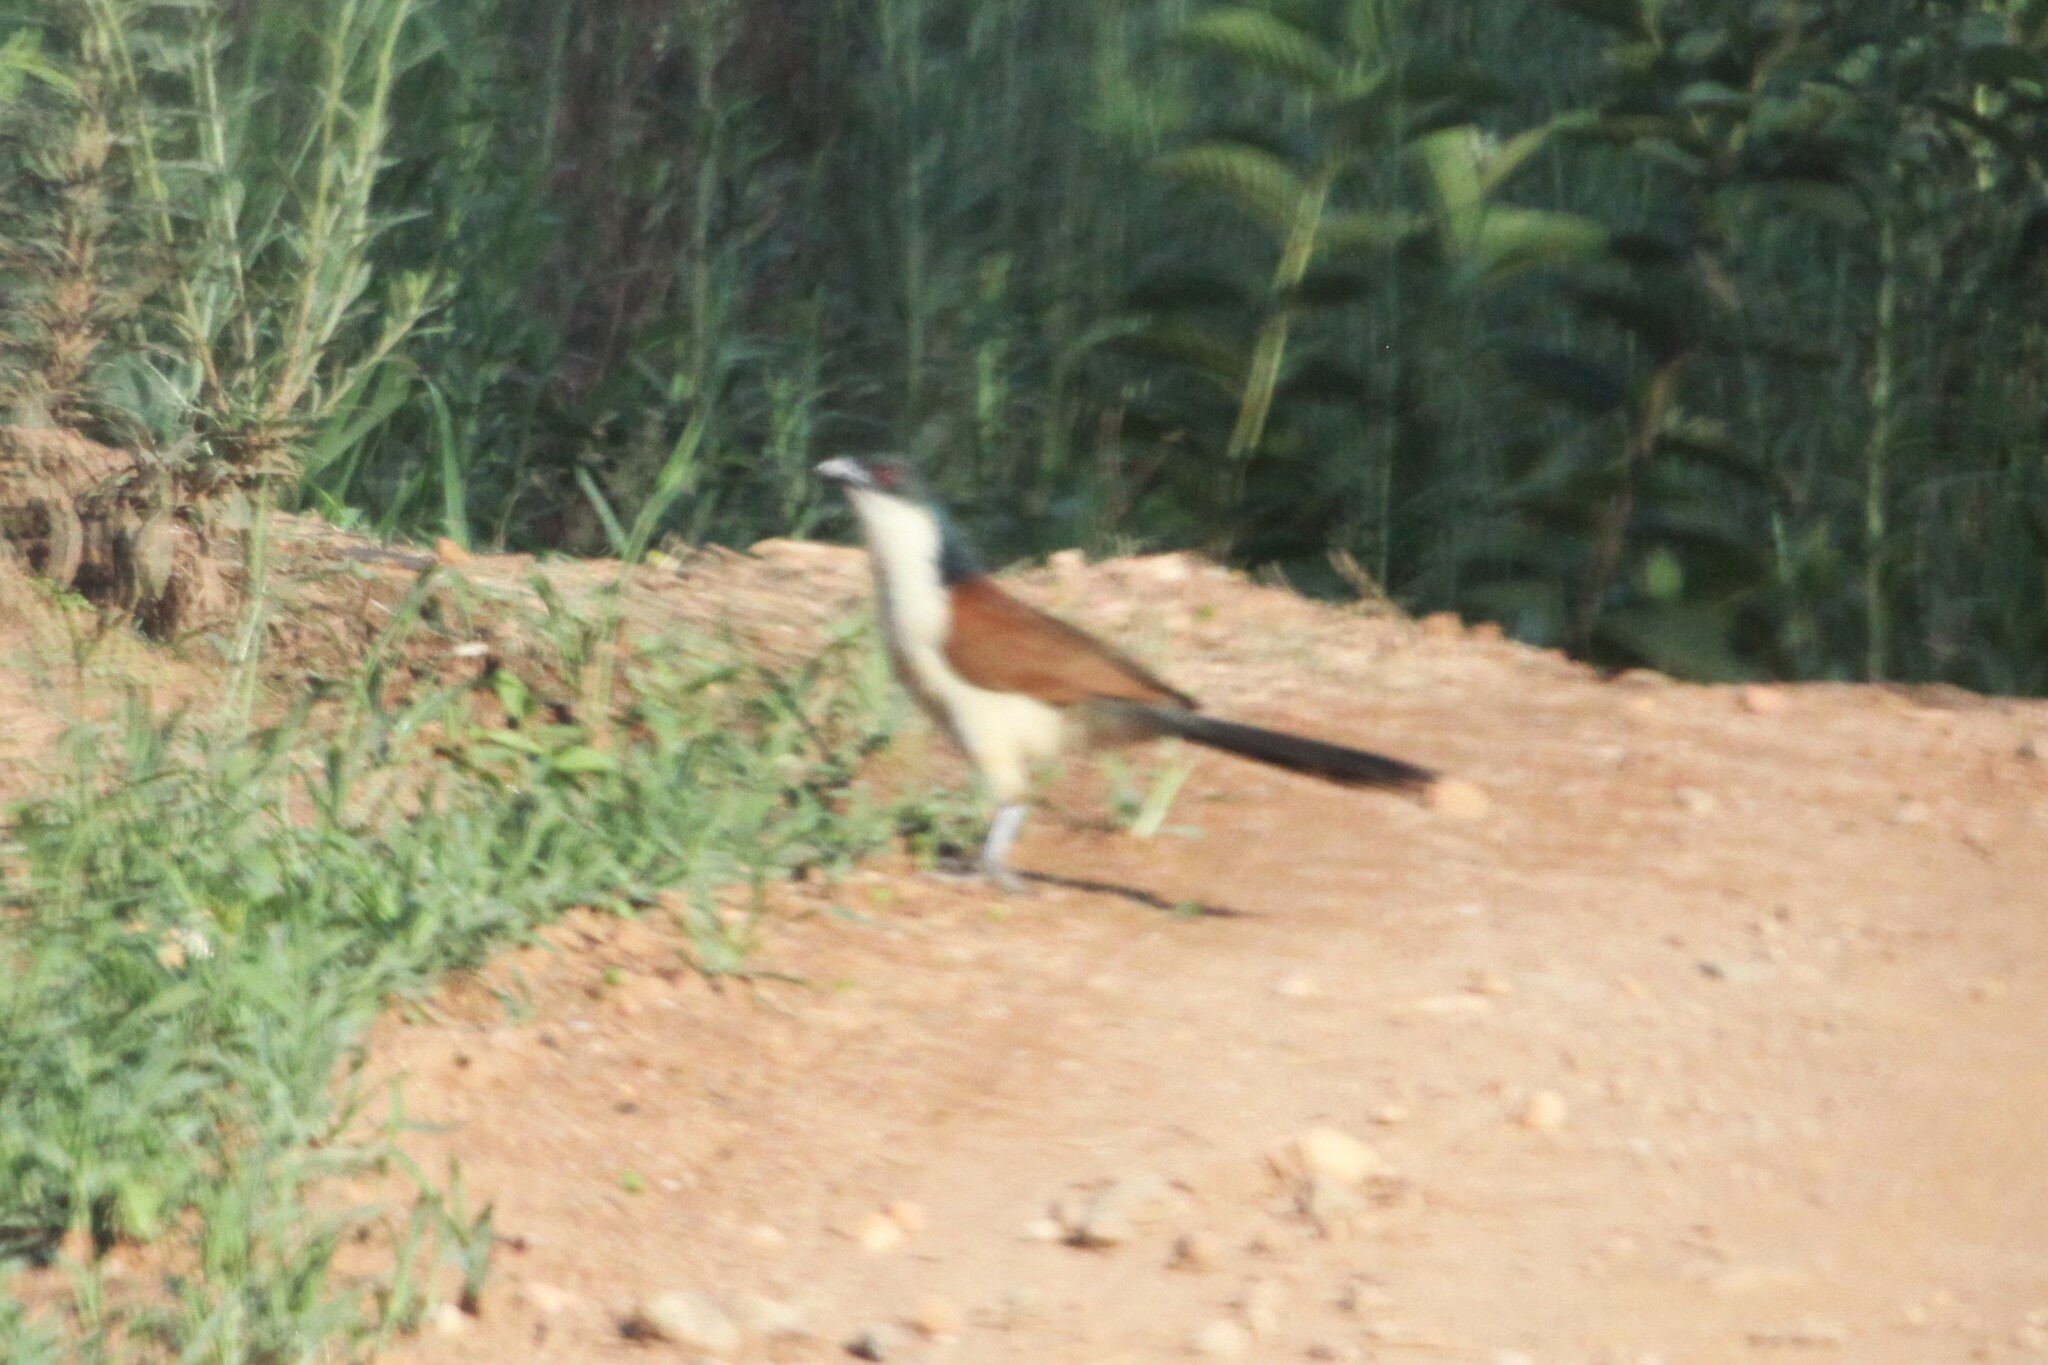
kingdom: Animalia
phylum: Chordata
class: Aves
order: Cuculiformes
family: Cuculidae
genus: Centropus
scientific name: Centropus senegalensis
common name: Senegal coucal
